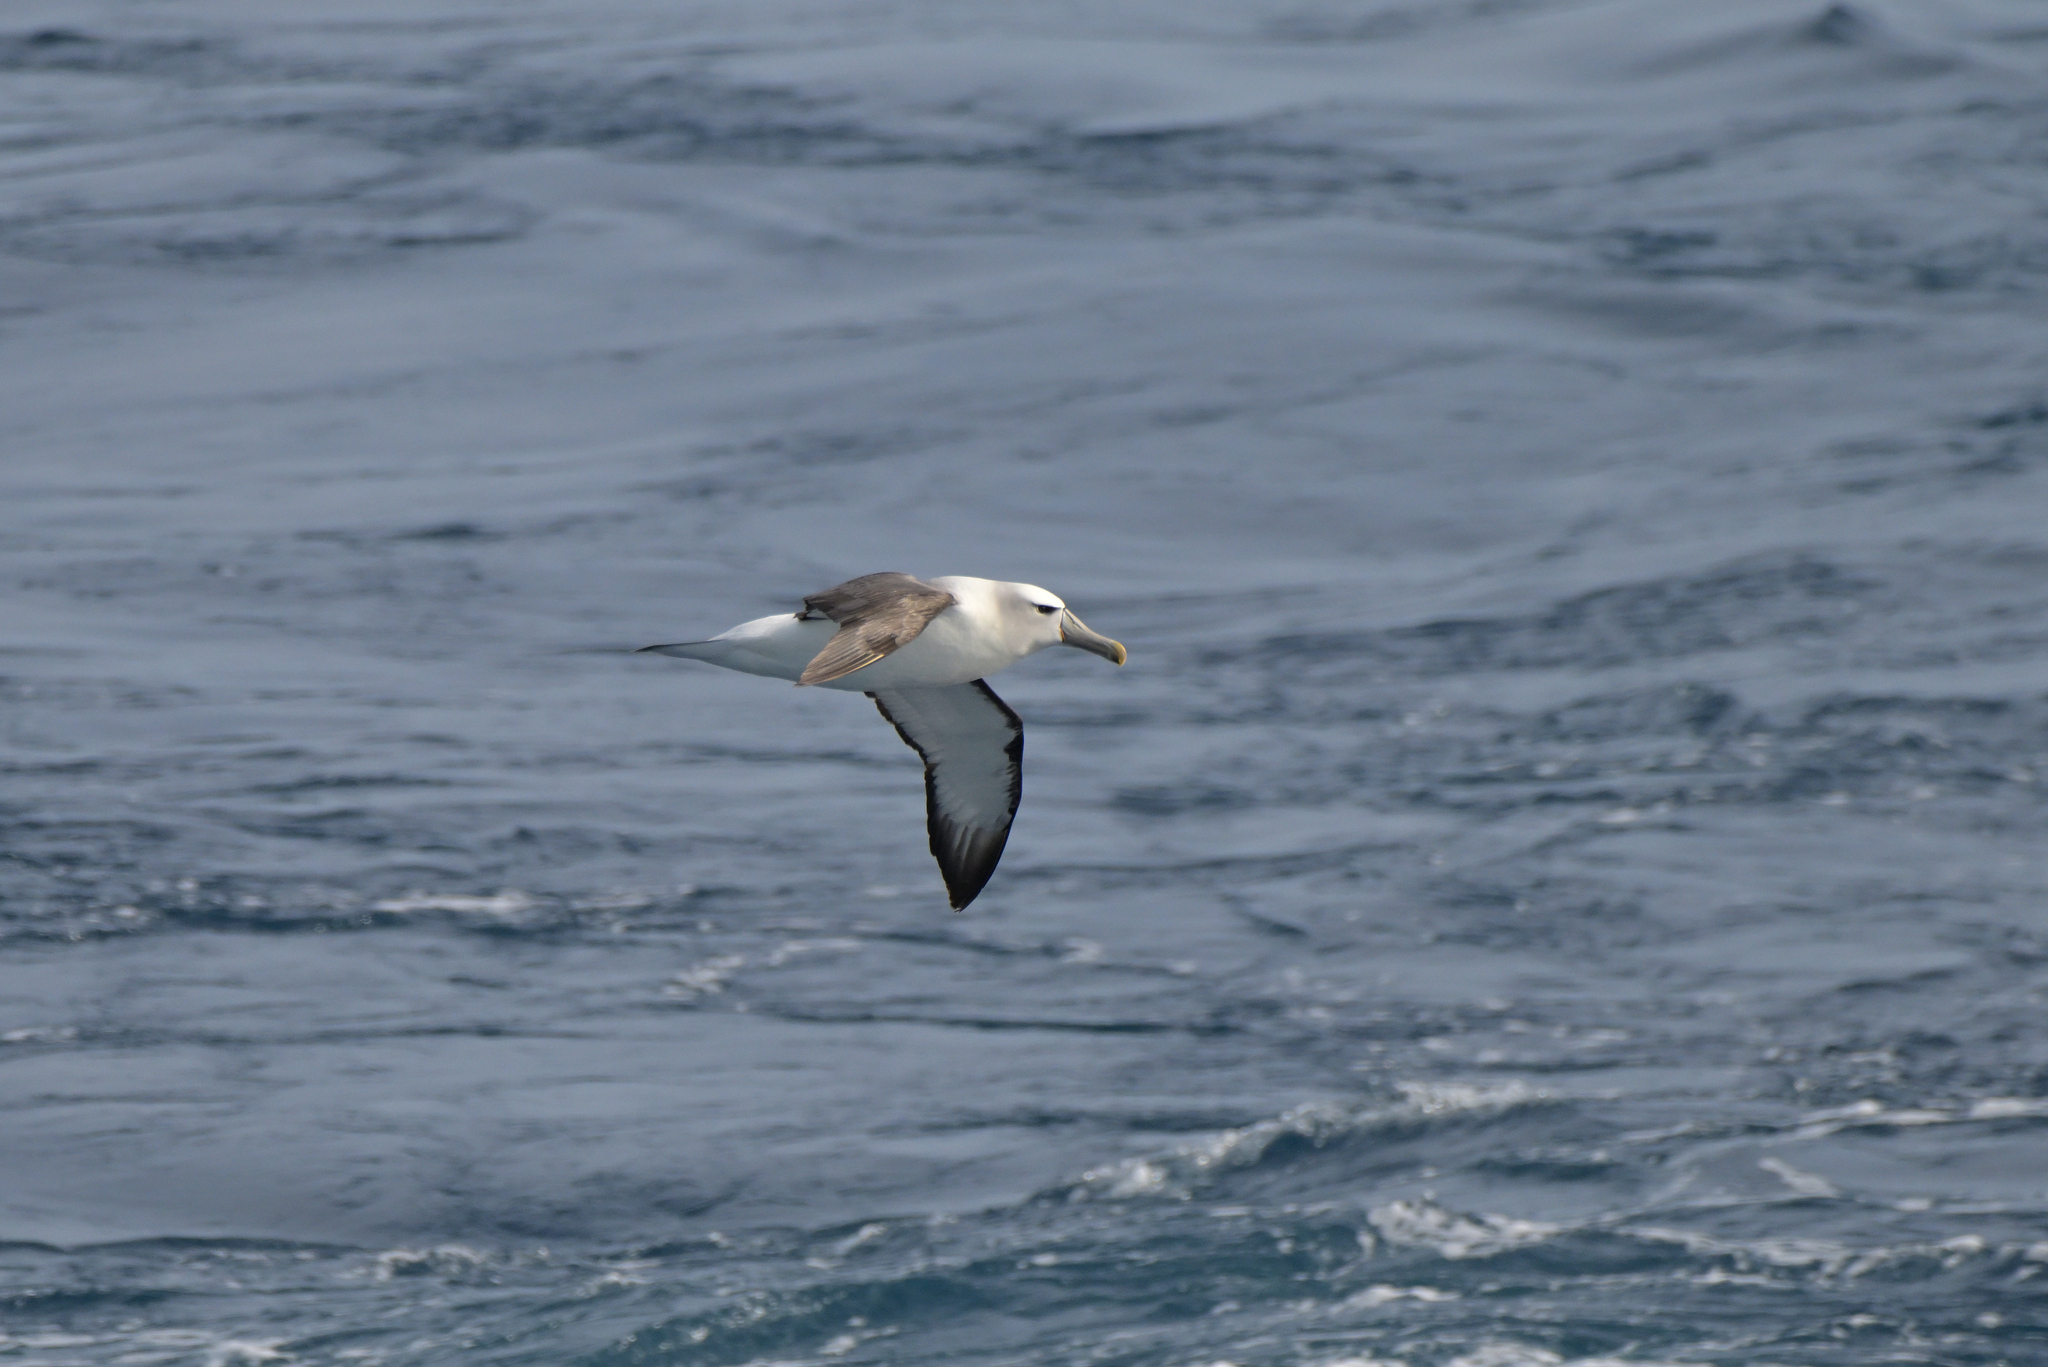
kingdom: Animalia
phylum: Chordata
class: Aves
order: Procellariiformes
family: Diomedeidae
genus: Thalassarche
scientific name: Thalassarche cauta
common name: Shy albatross
